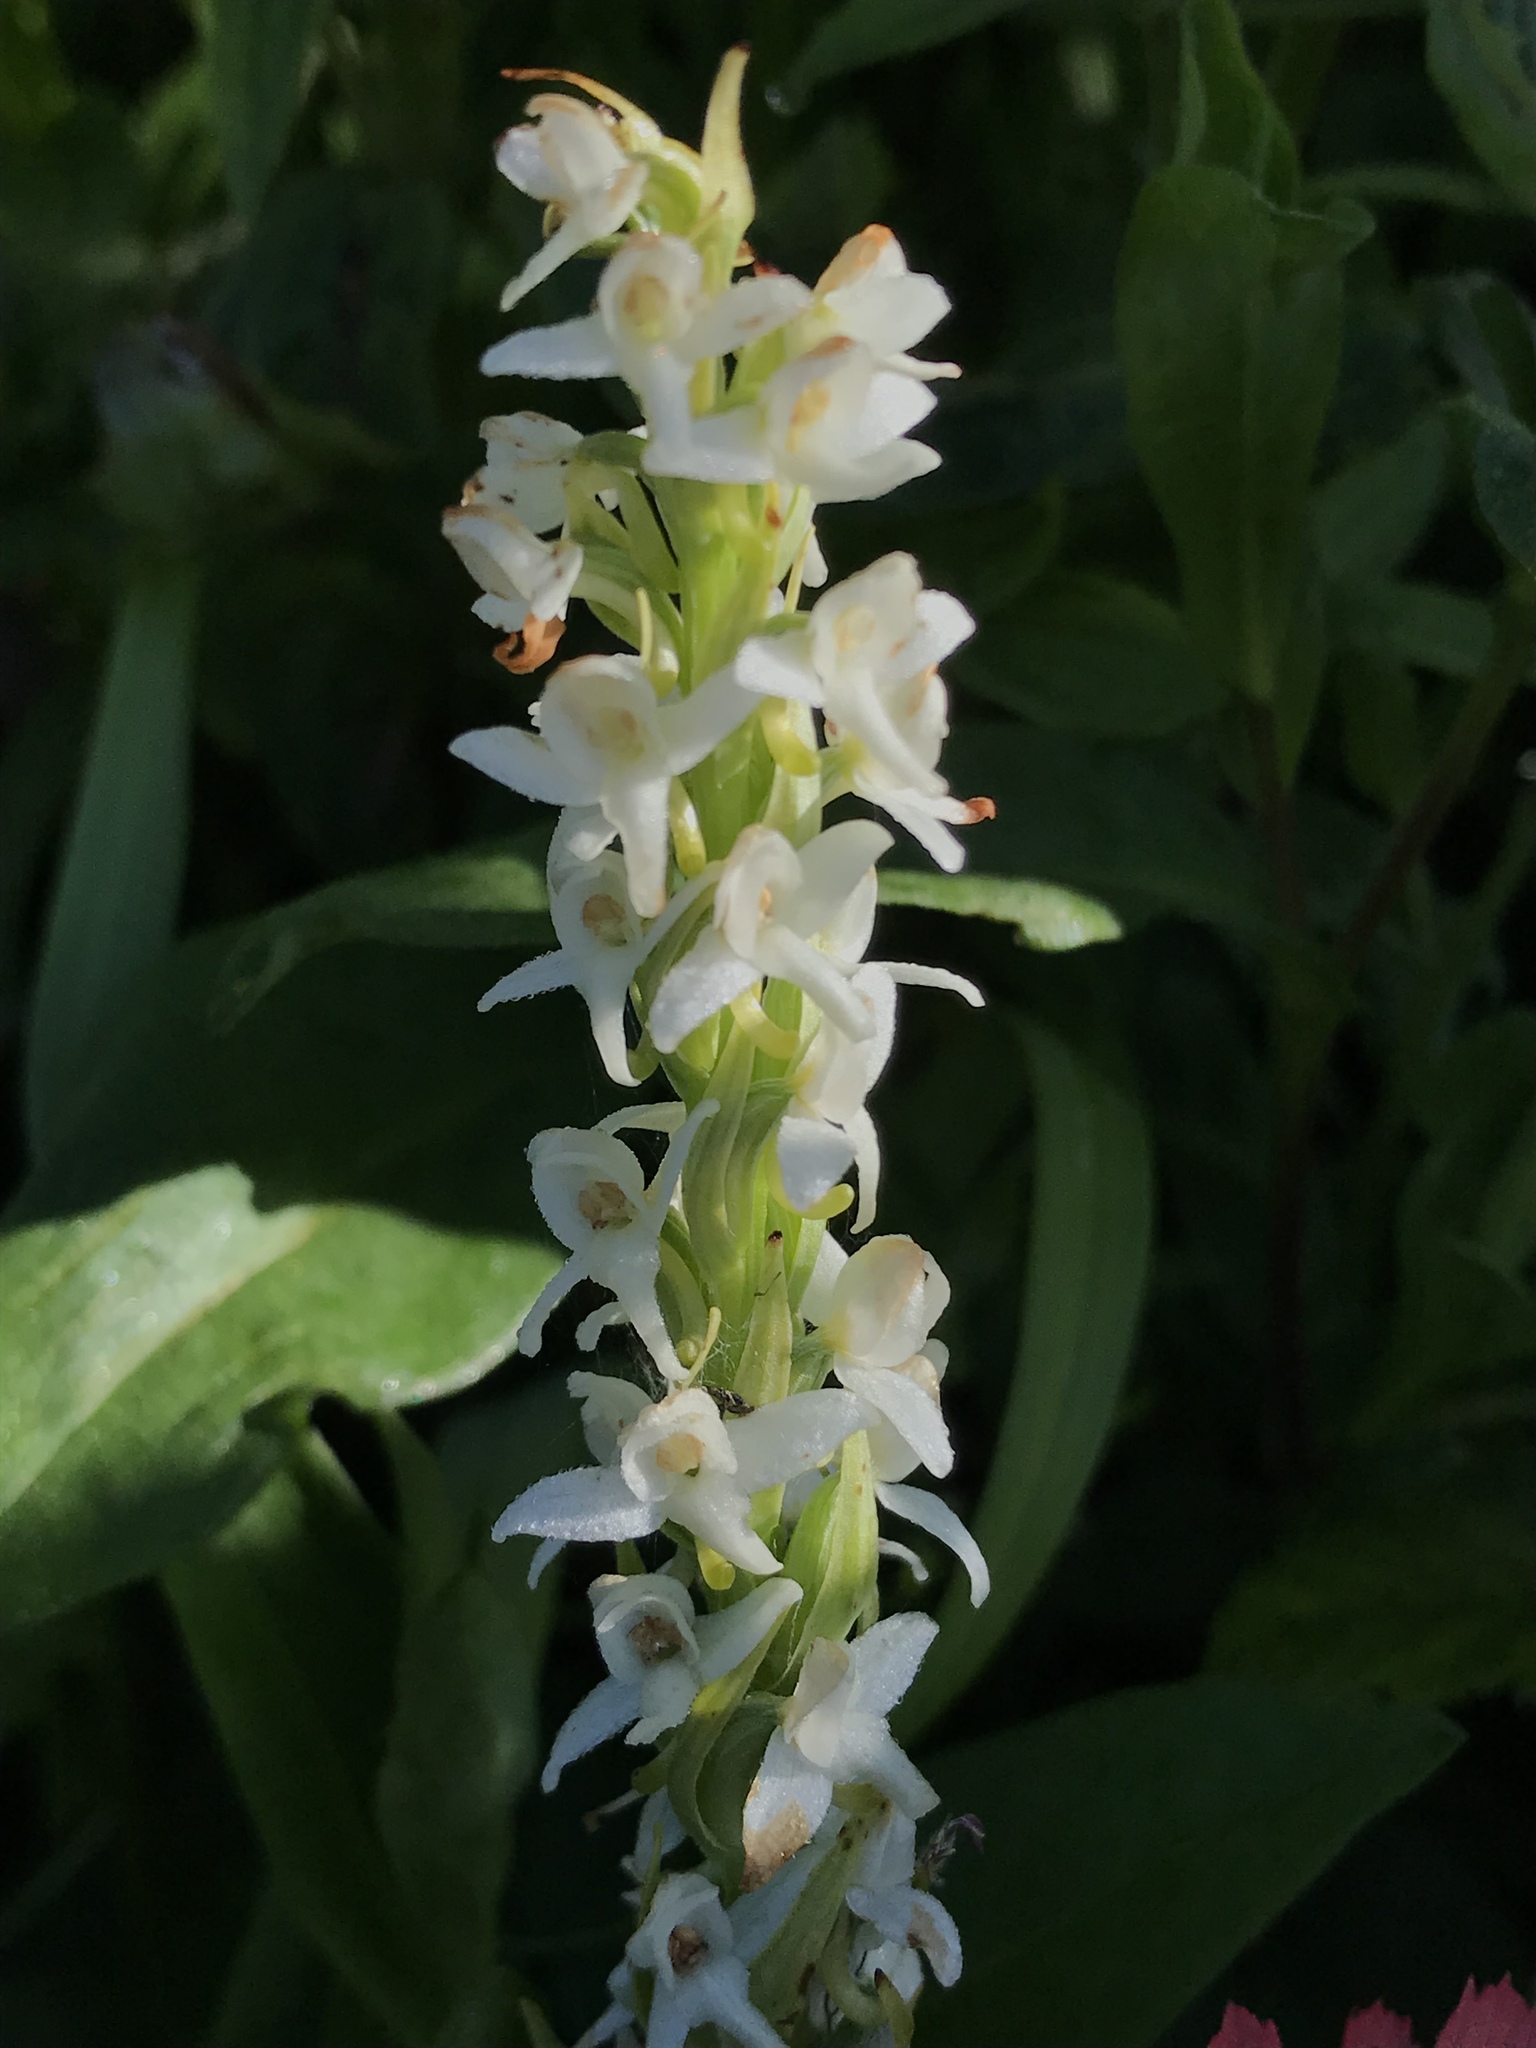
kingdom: Plantae
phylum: Tracheophyta
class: Liliopsida
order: Asparagales
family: Orchidaceae
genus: Platanthera
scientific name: Platanthera dilatata
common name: Bog candles
